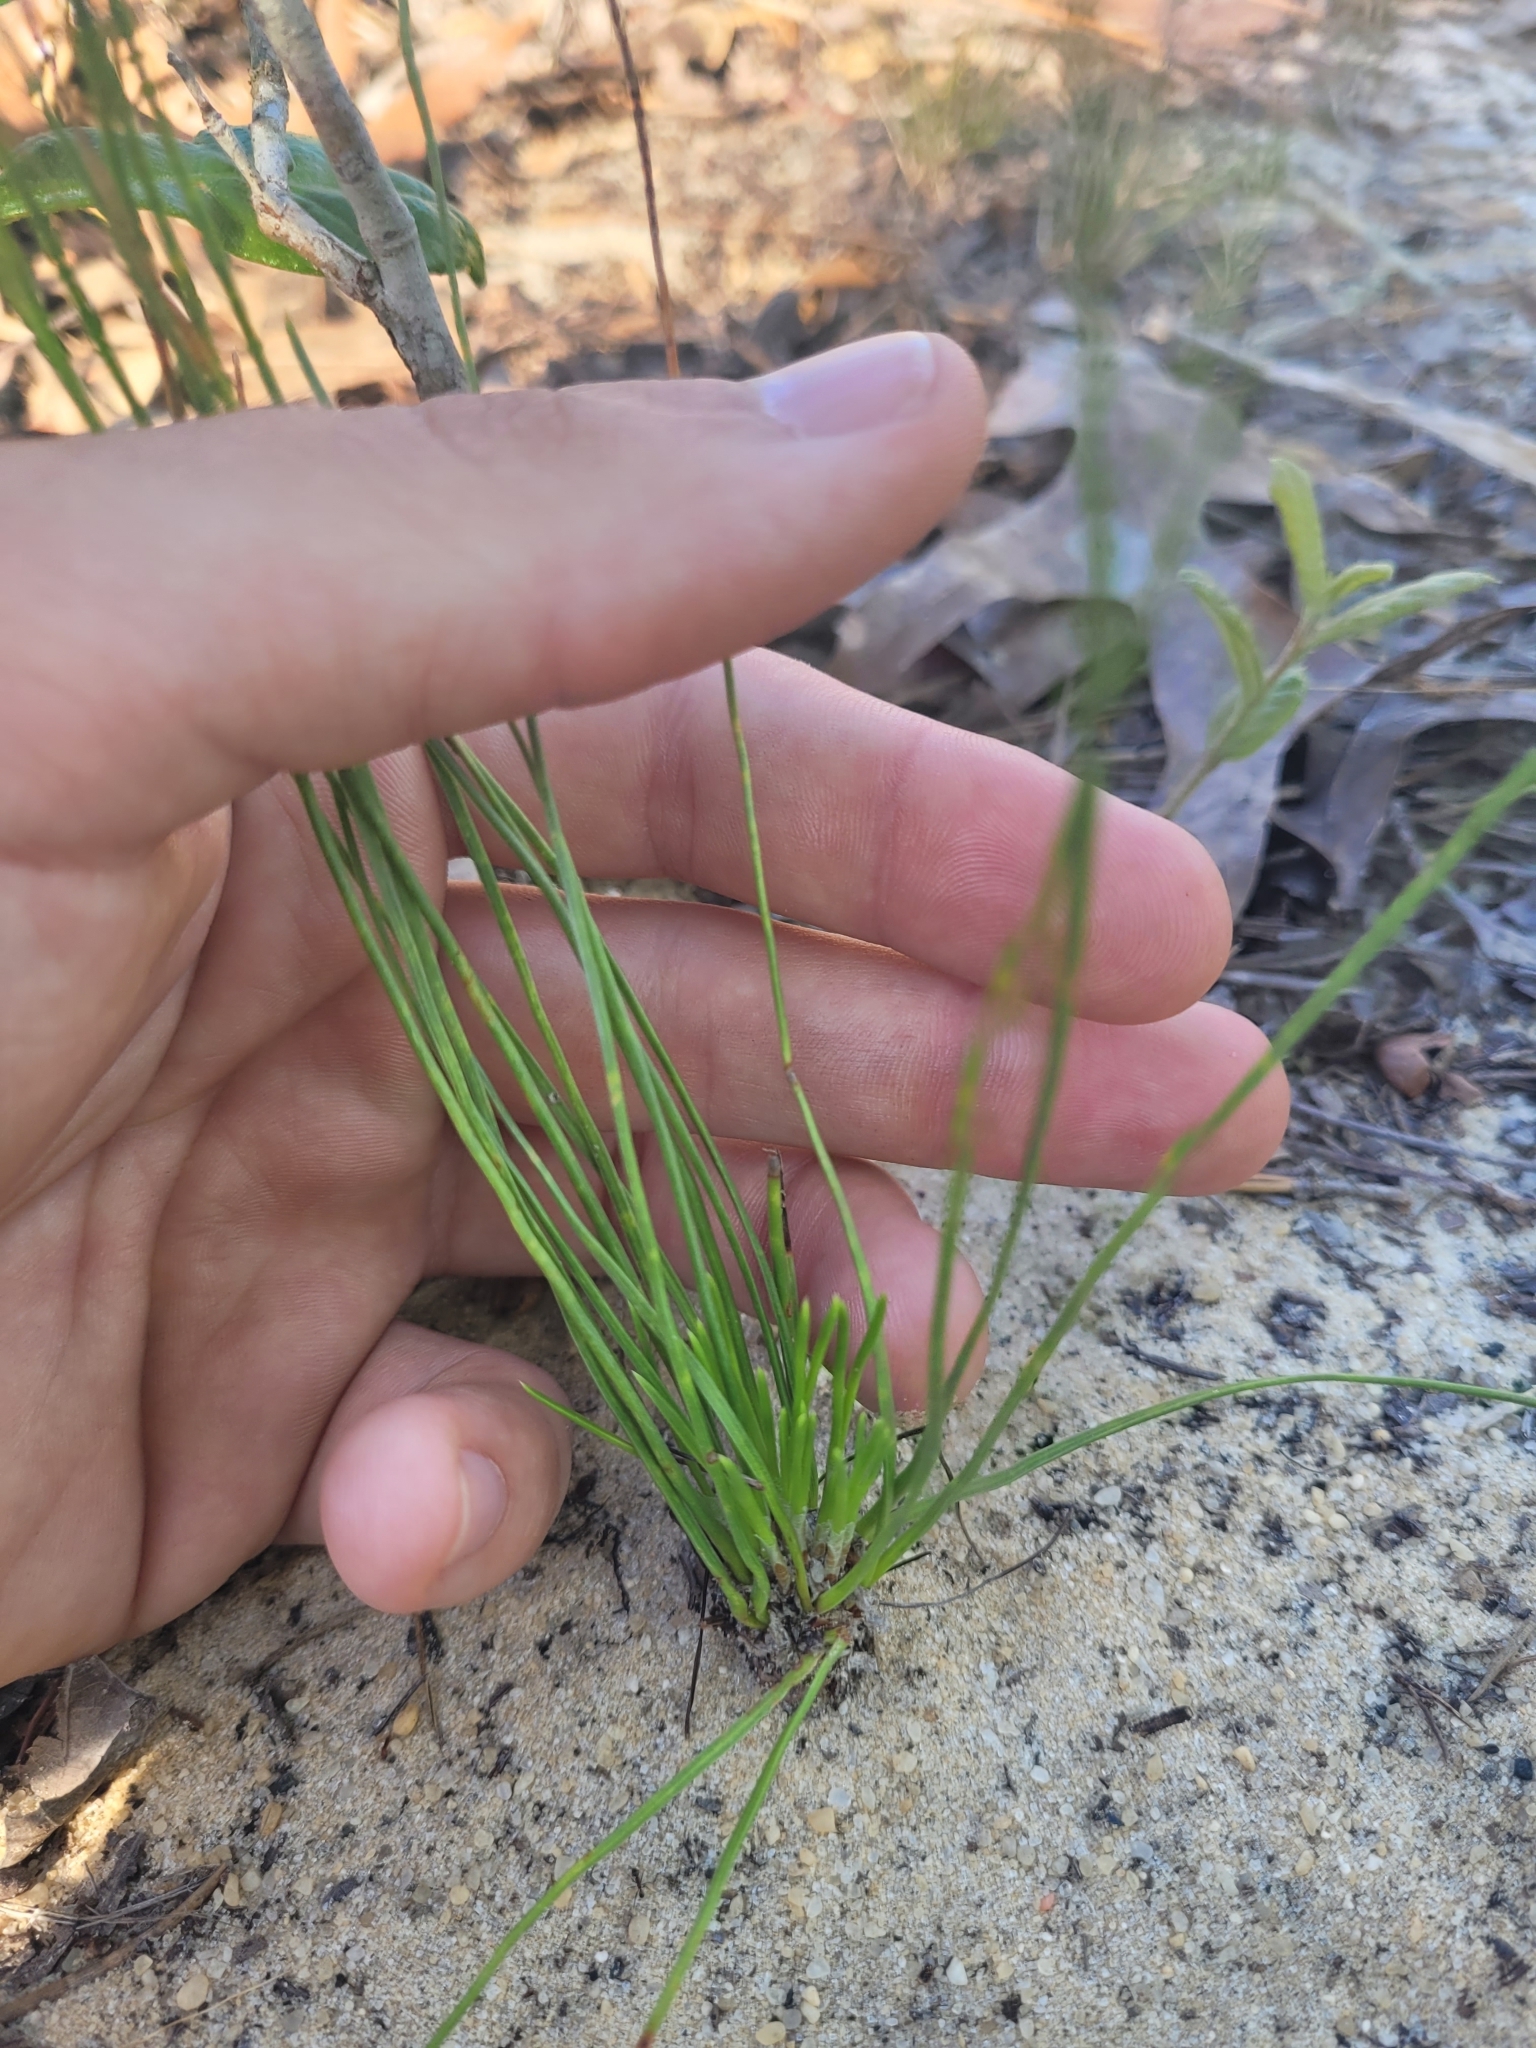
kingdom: Plantae
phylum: Tracheophyta
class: Pinopsida
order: Pinales
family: Pinaceae
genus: Pinus
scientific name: Pinus palustris
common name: Longleaf pine
